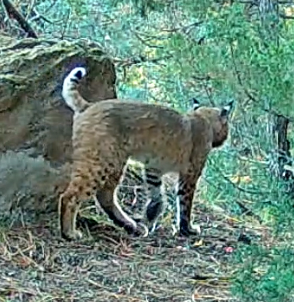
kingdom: Animalia
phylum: Chordata
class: Mammalia
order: Carnivora
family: Felidae
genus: Lynx
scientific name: Lynx rufus
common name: Bobcat
